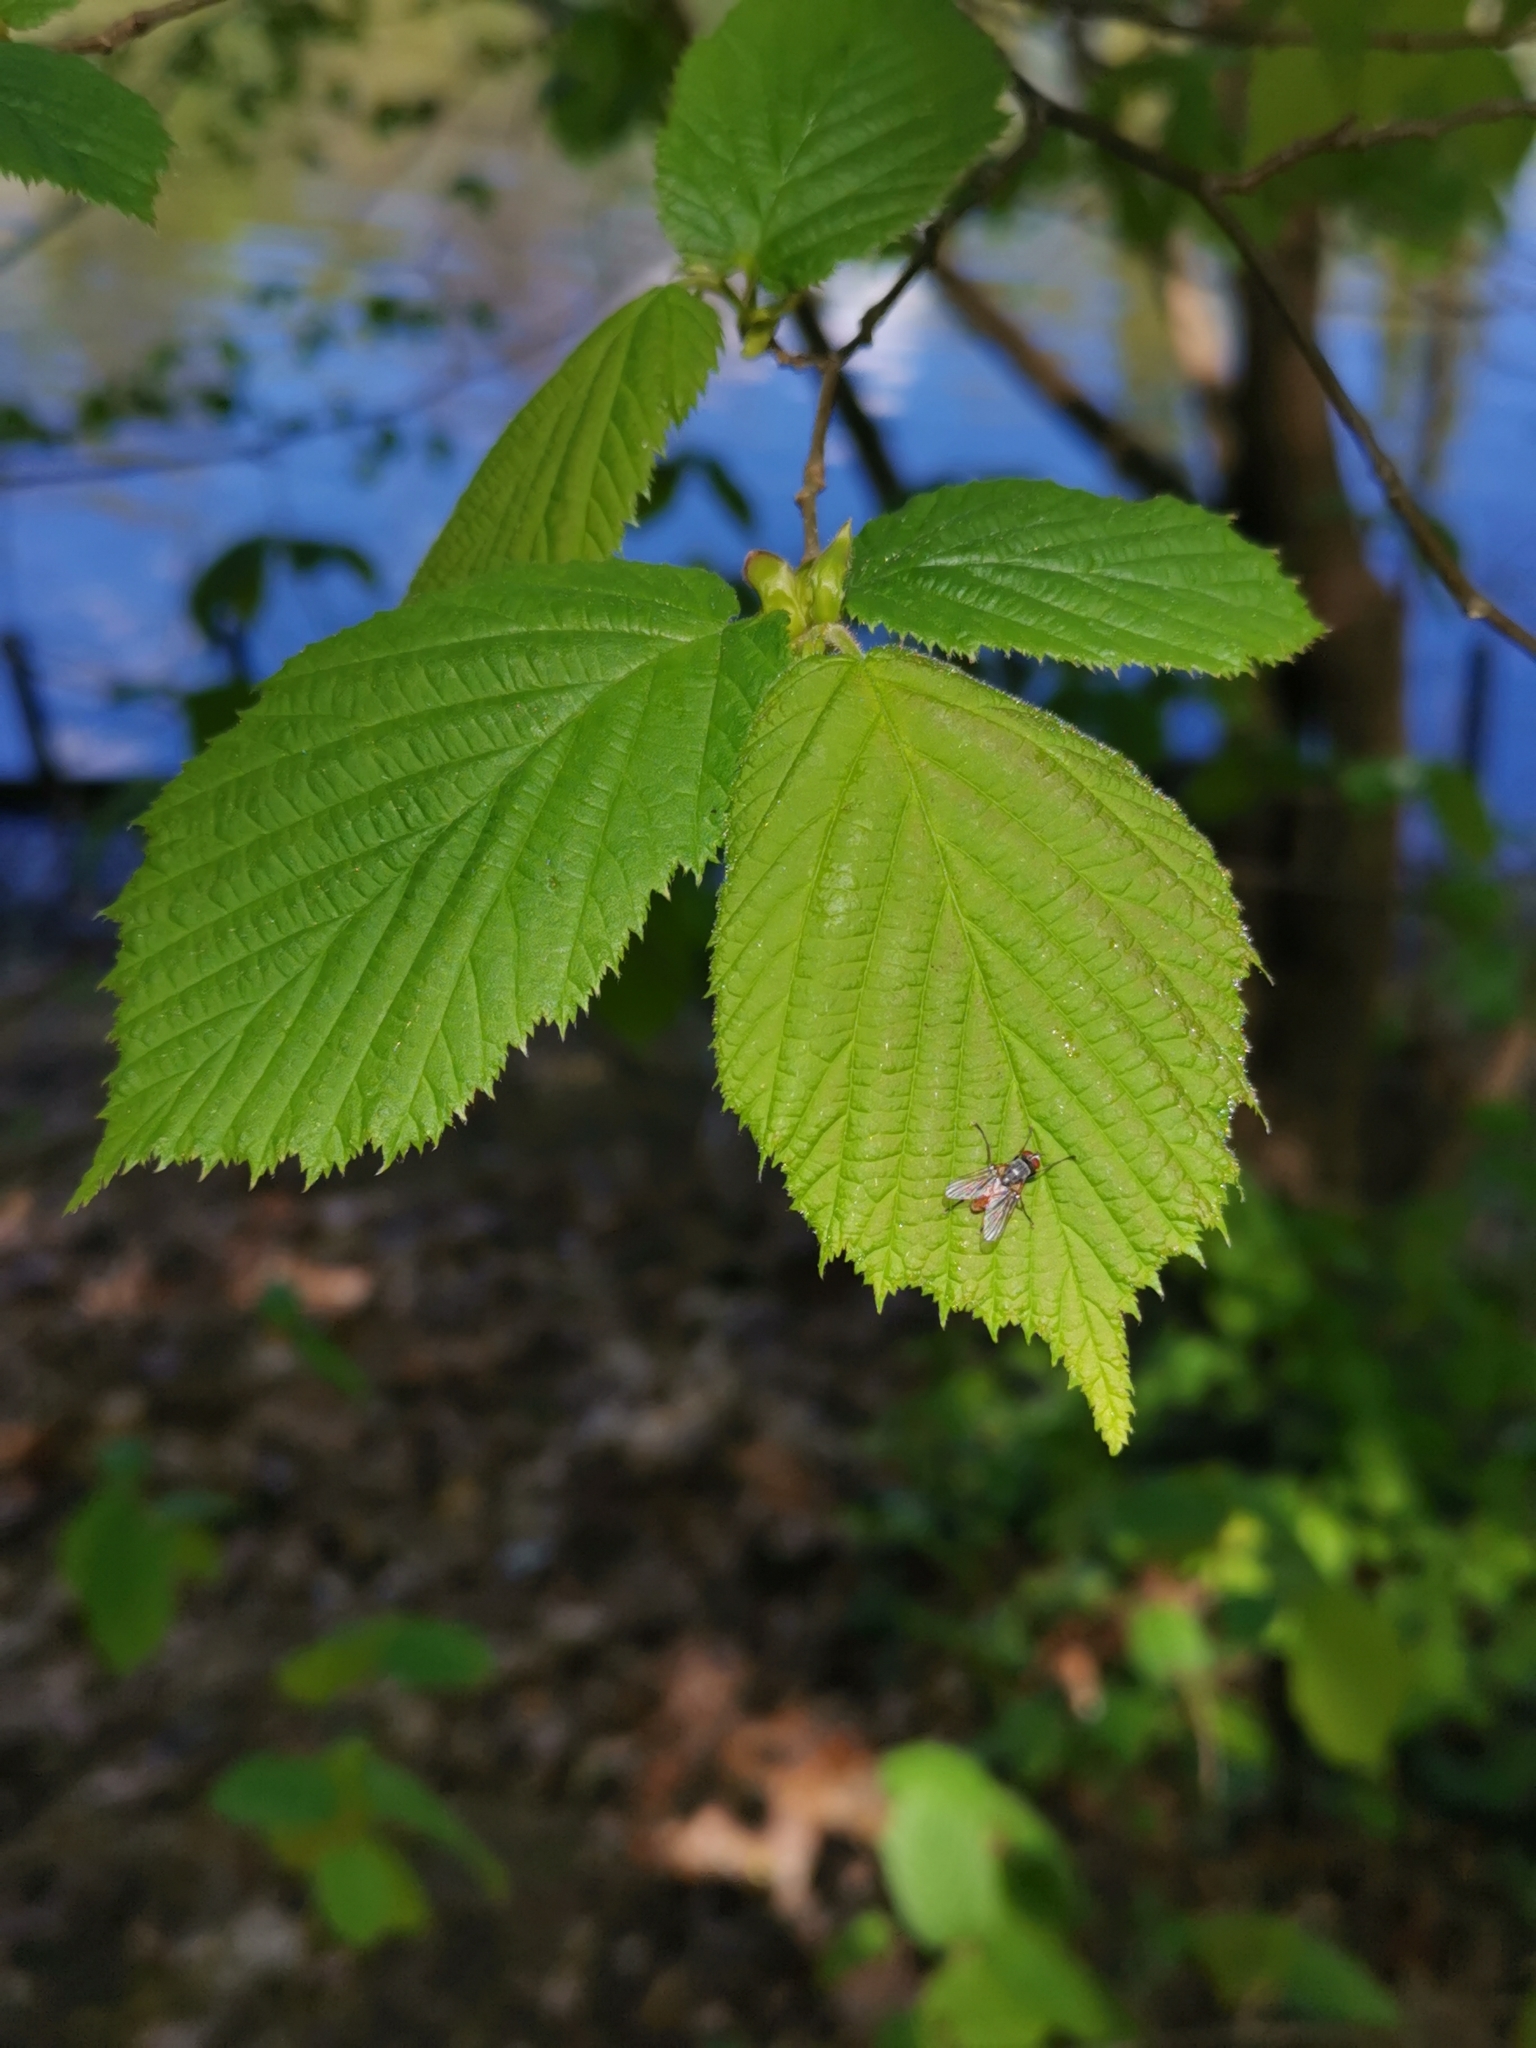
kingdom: Plantae
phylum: Tracheophyta
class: Magnoliopsida
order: Fagales
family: Betulaceae
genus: Corylus
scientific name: Corylus avellana
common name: European hazel
